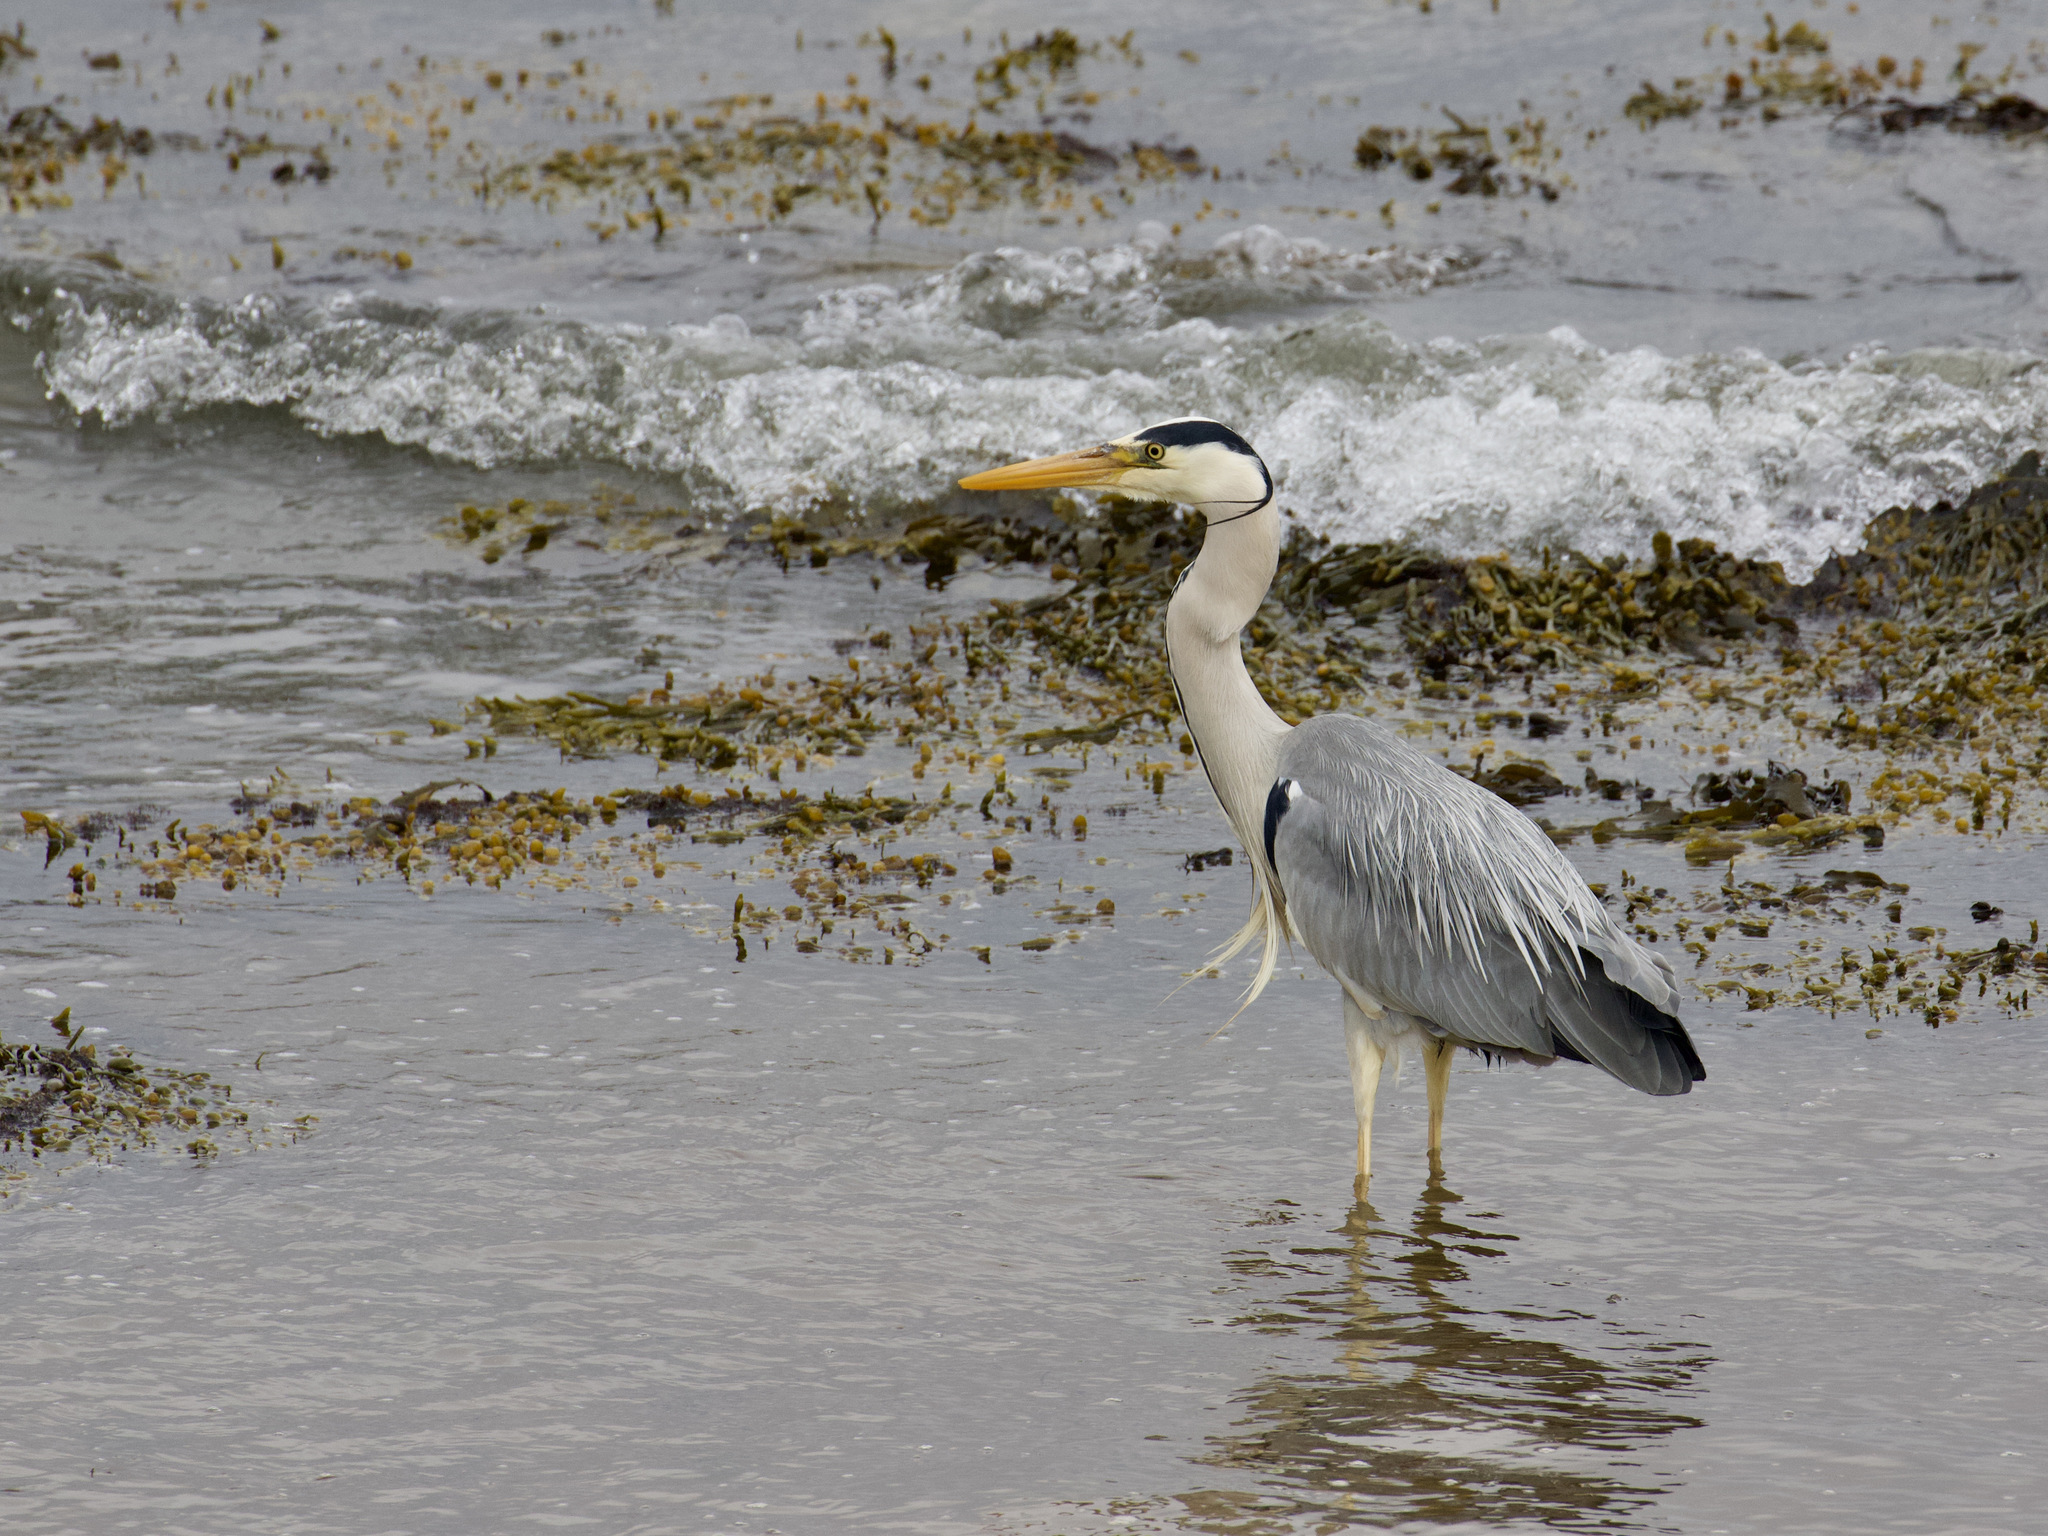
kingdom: Animalia
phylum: Chordata
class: Aves
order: Pelecaniformes
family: Ardeidae
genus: Ardea
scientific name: Ardea cinerea
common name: Grey heron
